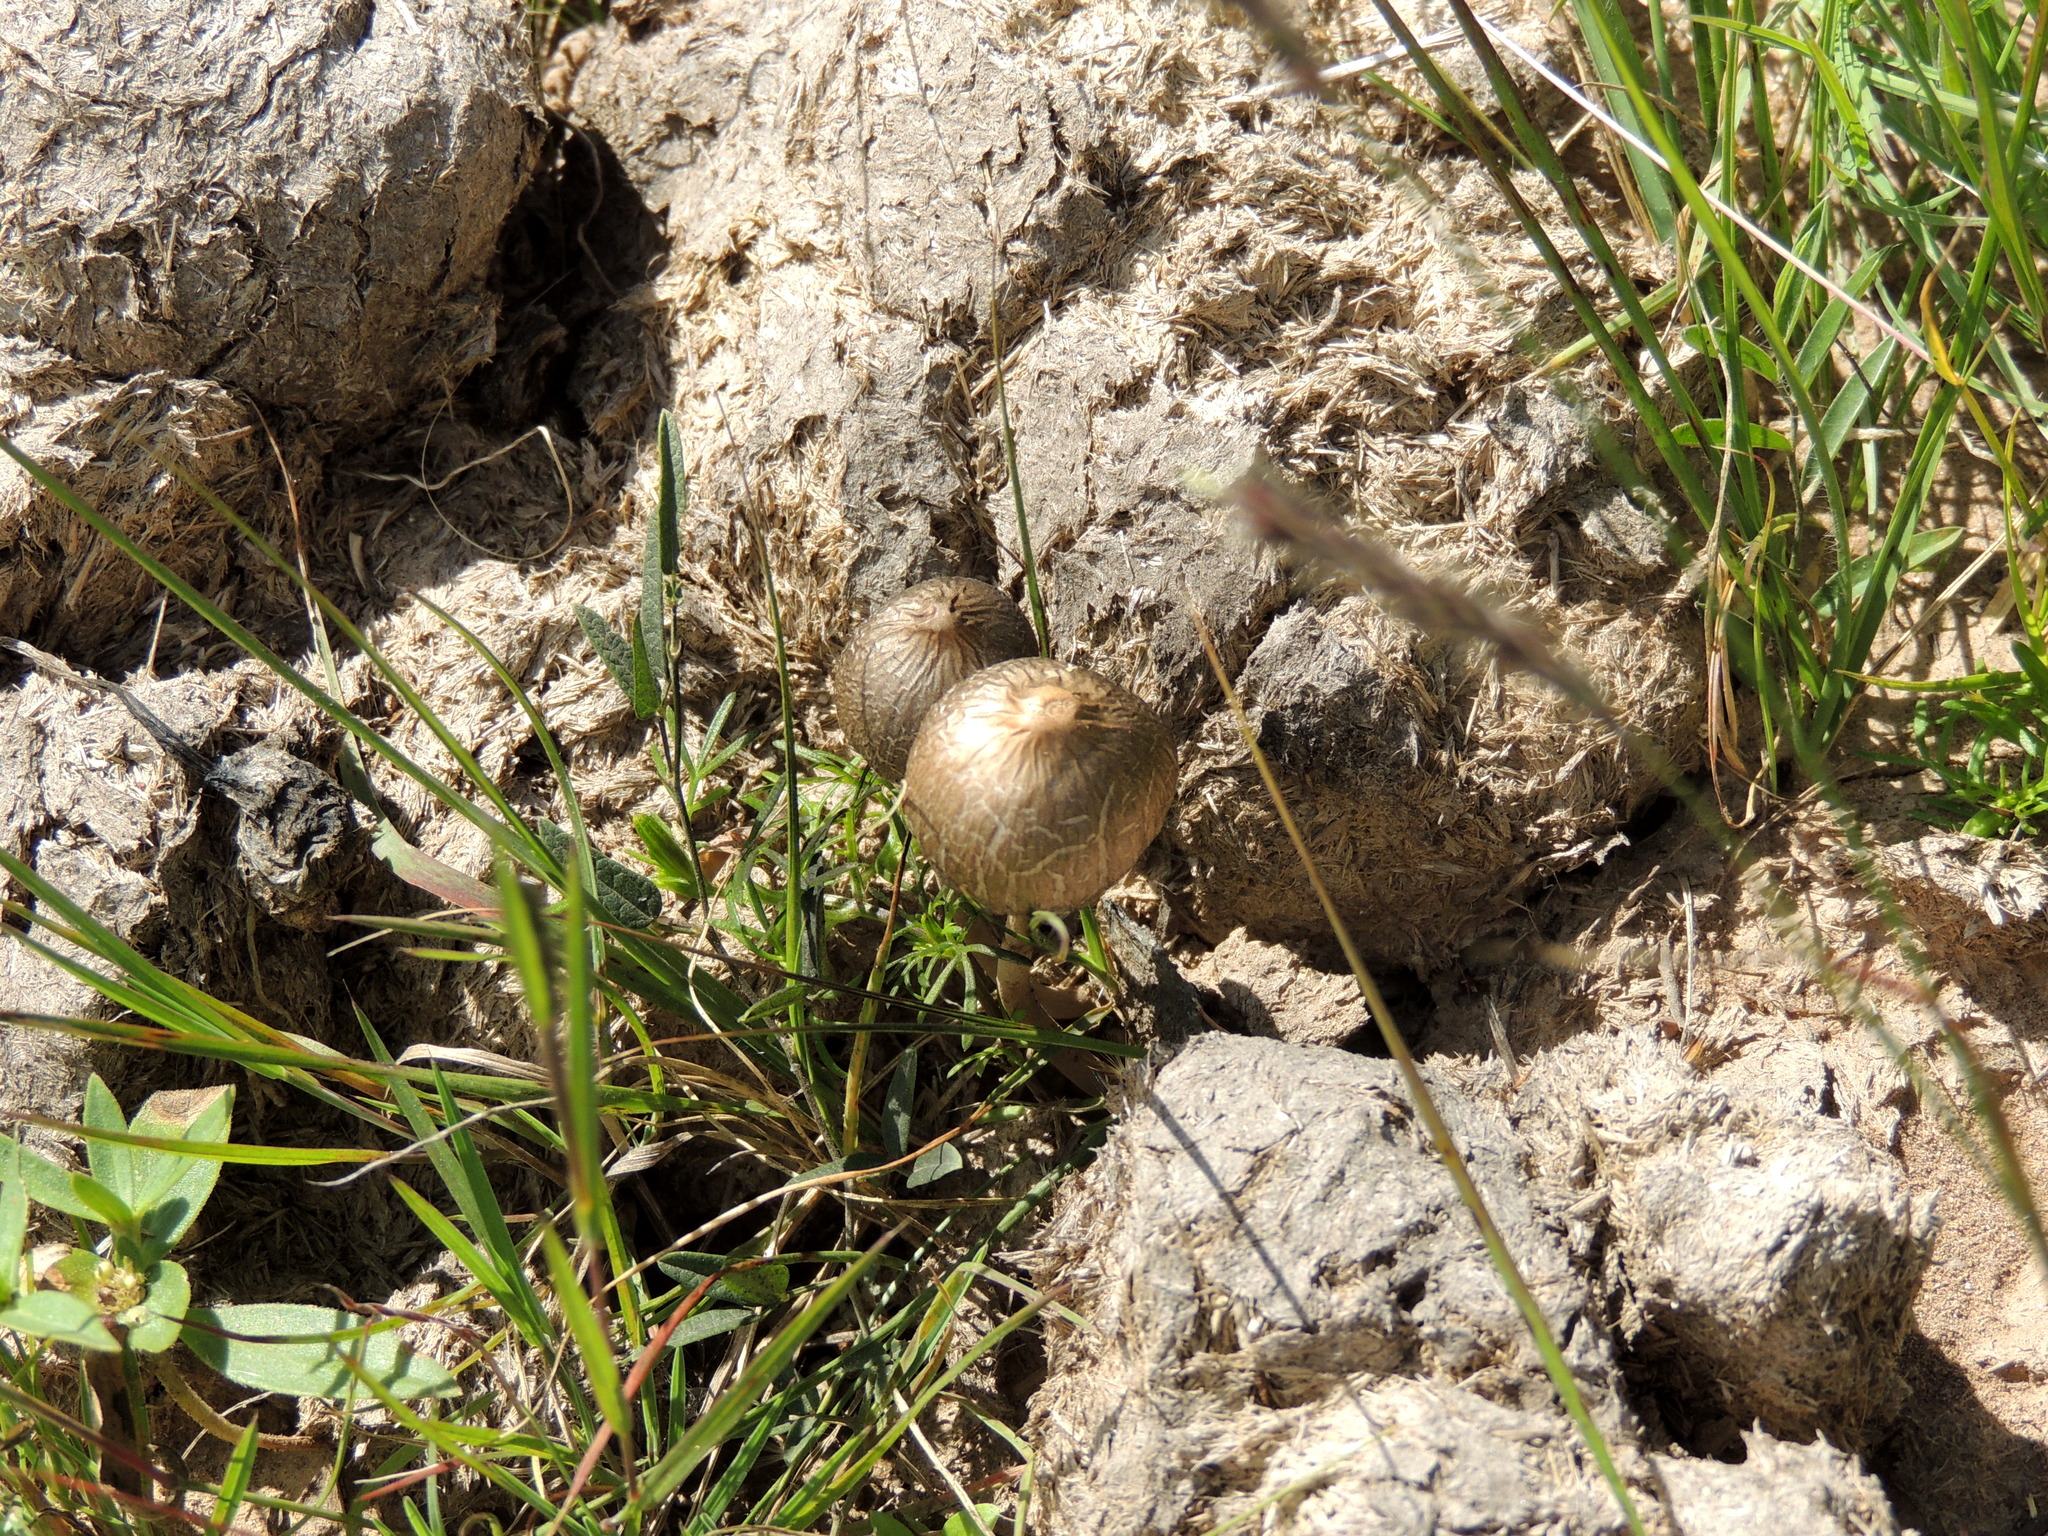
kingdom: Fungi
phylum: Basidiomycota
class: Agaricomycetes
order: Agaricales
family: Bolbitiaceae
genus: Panaeolus
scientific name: Panaeolus papilionaceus
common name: Petticoat mottlegill
